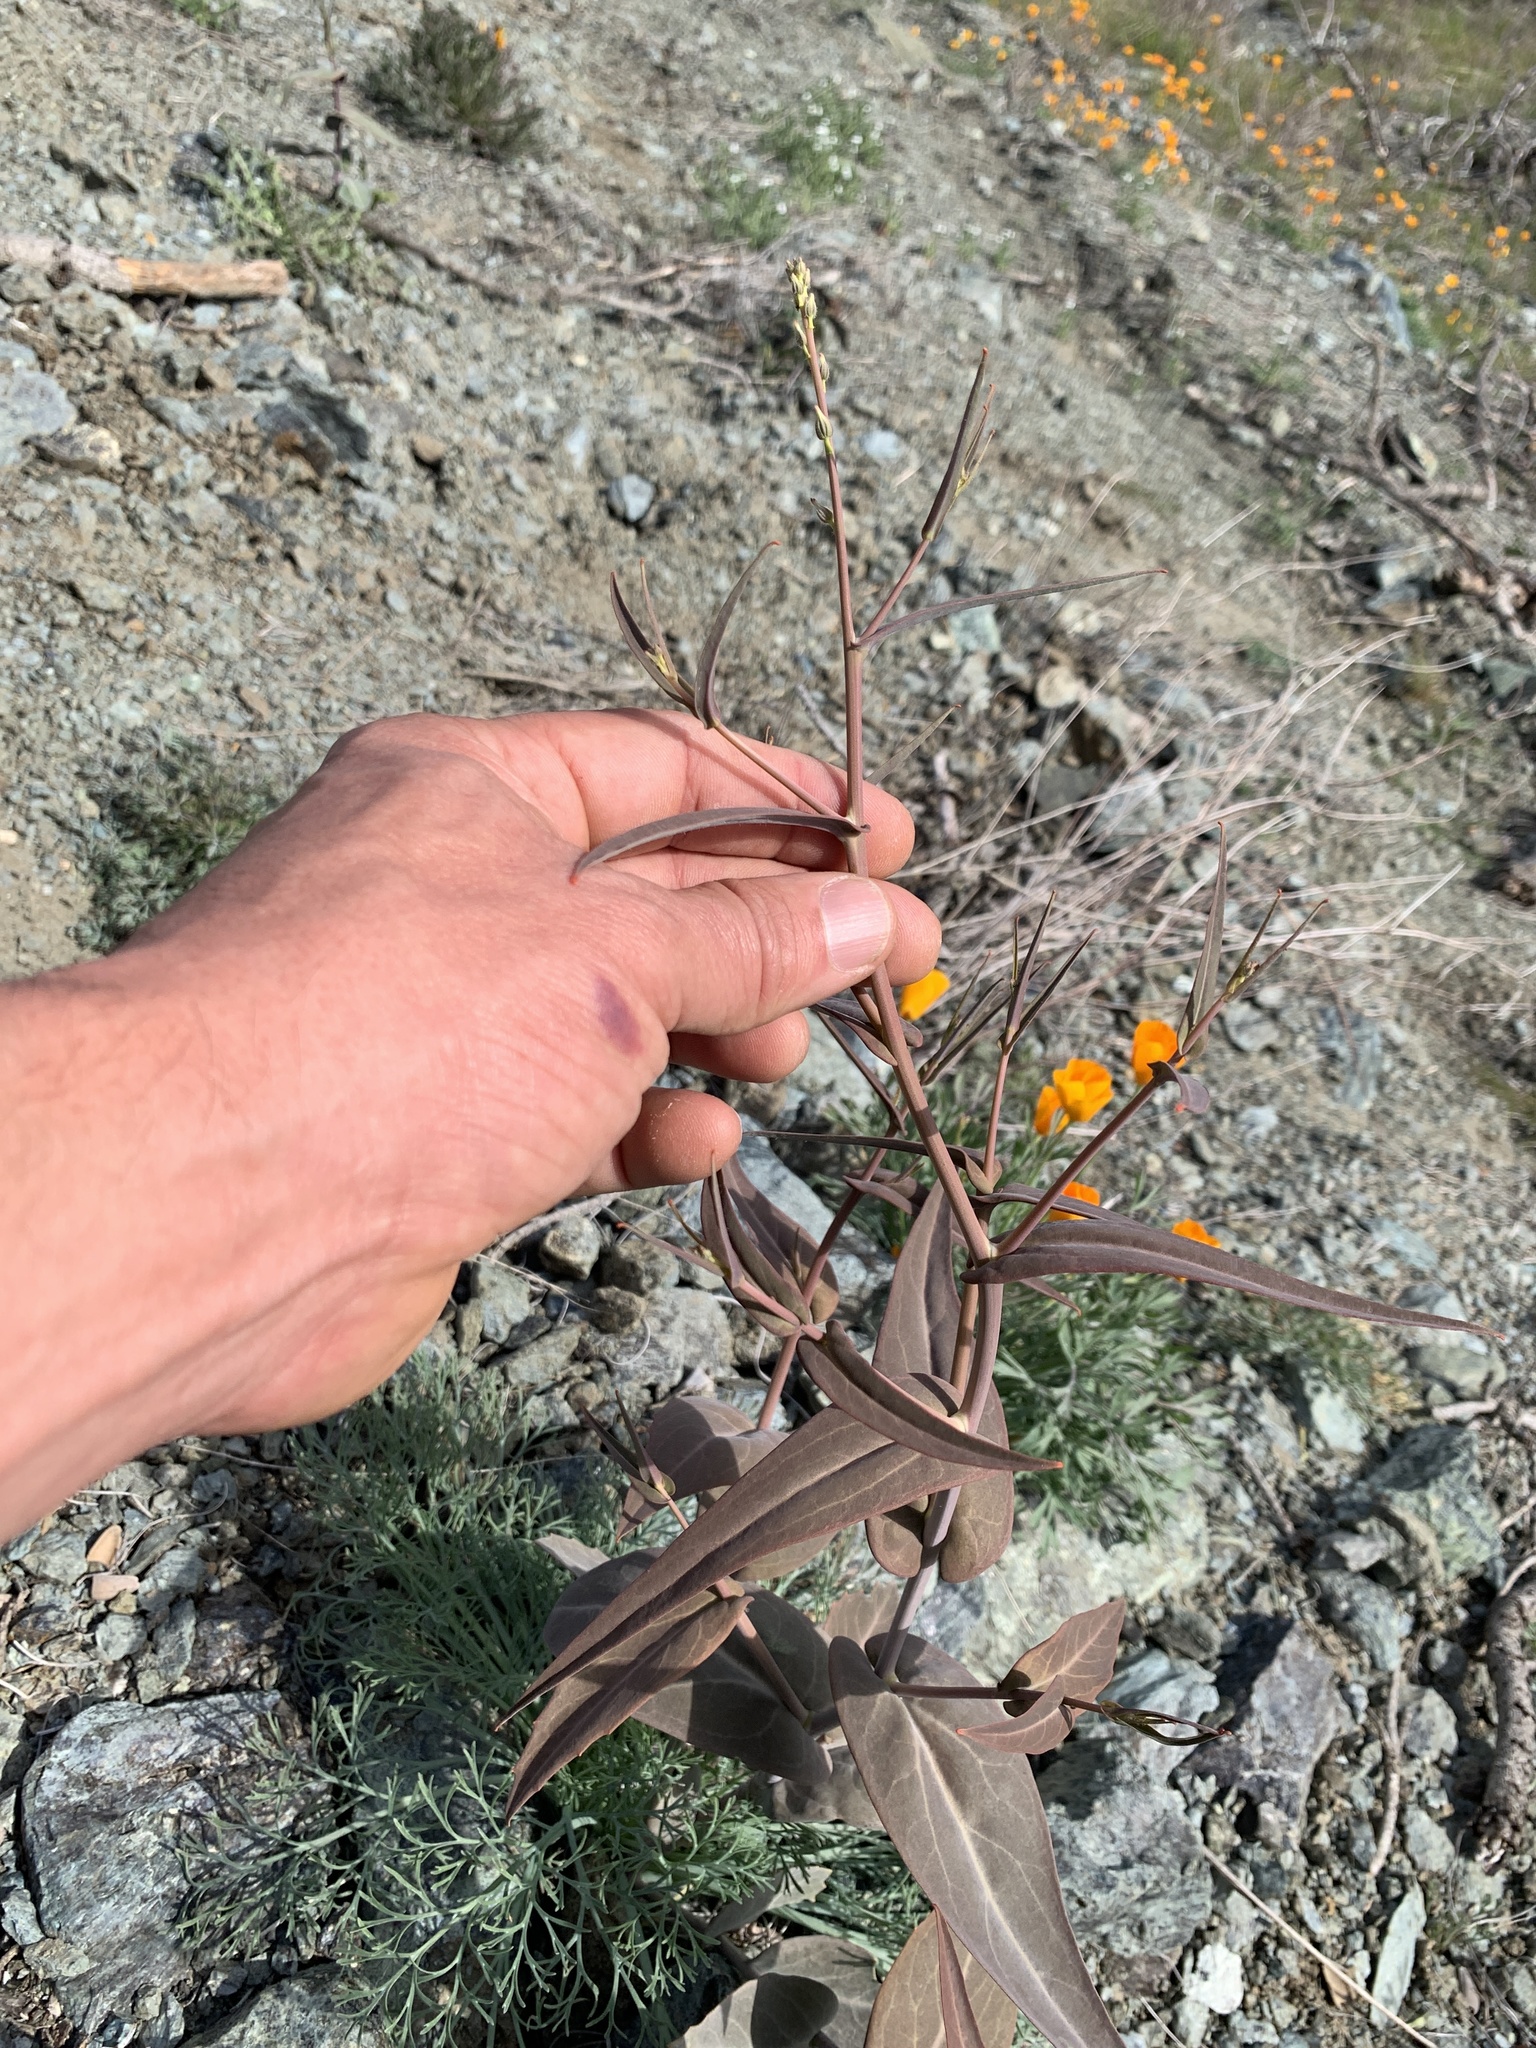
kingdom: Plantae
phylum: Tracheophyta
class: Magnoliopsida
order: Brassicales
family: Brassicaceae
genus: Streptanthus
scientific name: Streptanthus breweri
